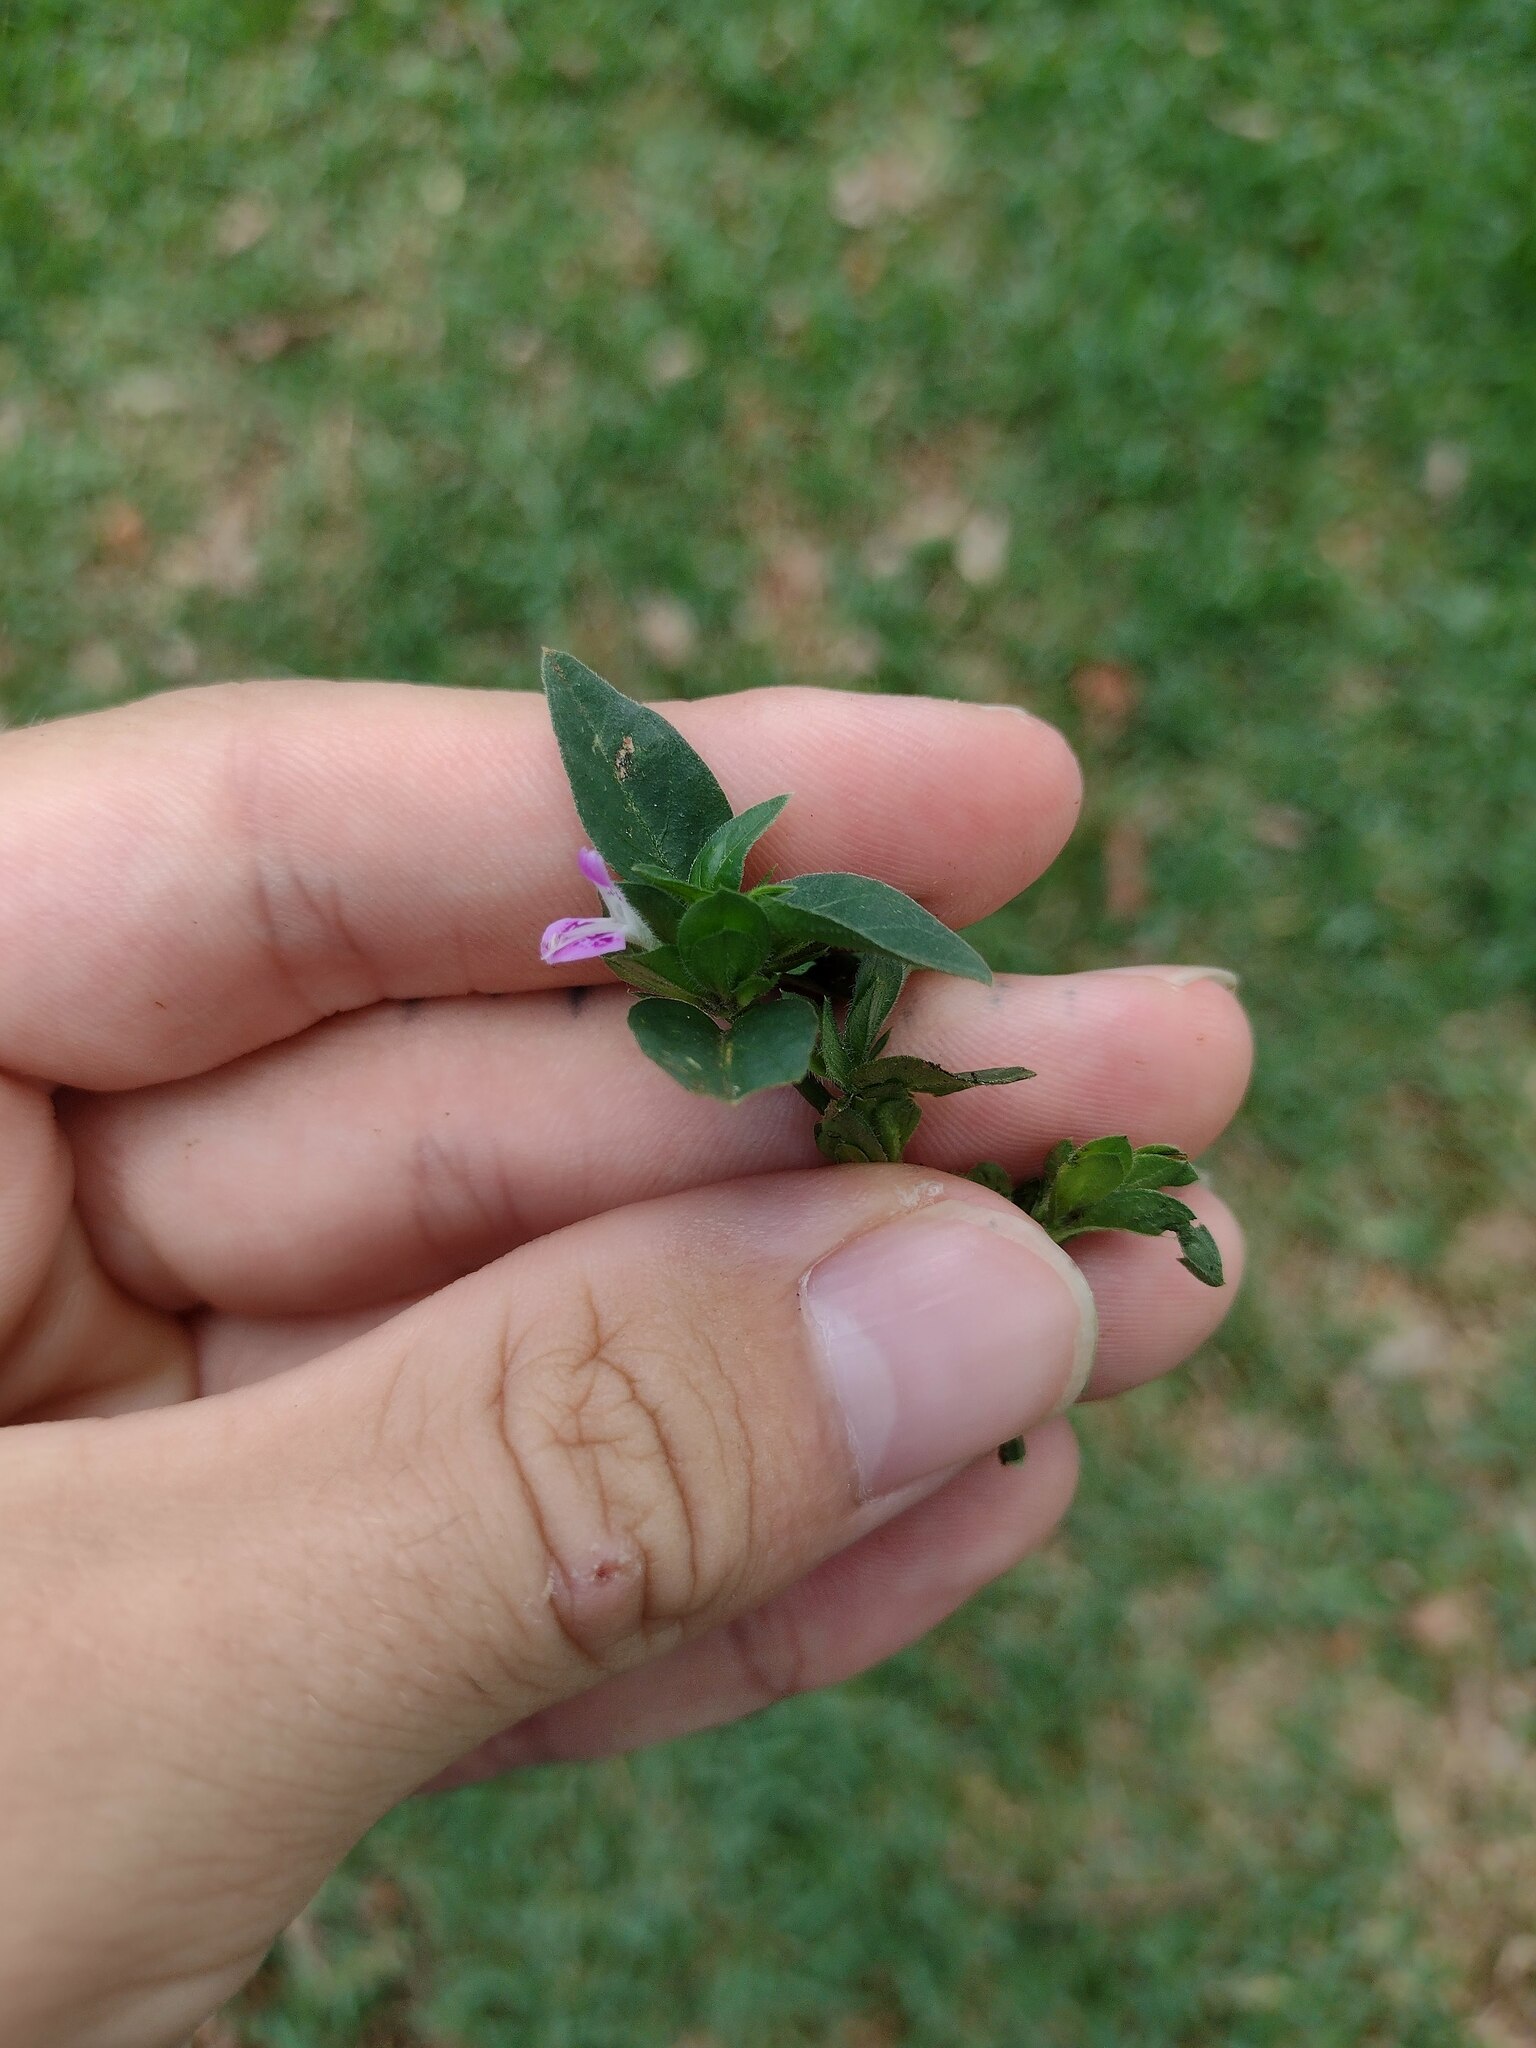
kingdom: Plantae
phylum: Tracheophyta
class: Magnoliopsida
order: Lamiales
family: Acanthaceae
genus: Dicliptera
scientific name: Dicliptera chinensis
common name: Chinese foldwing
